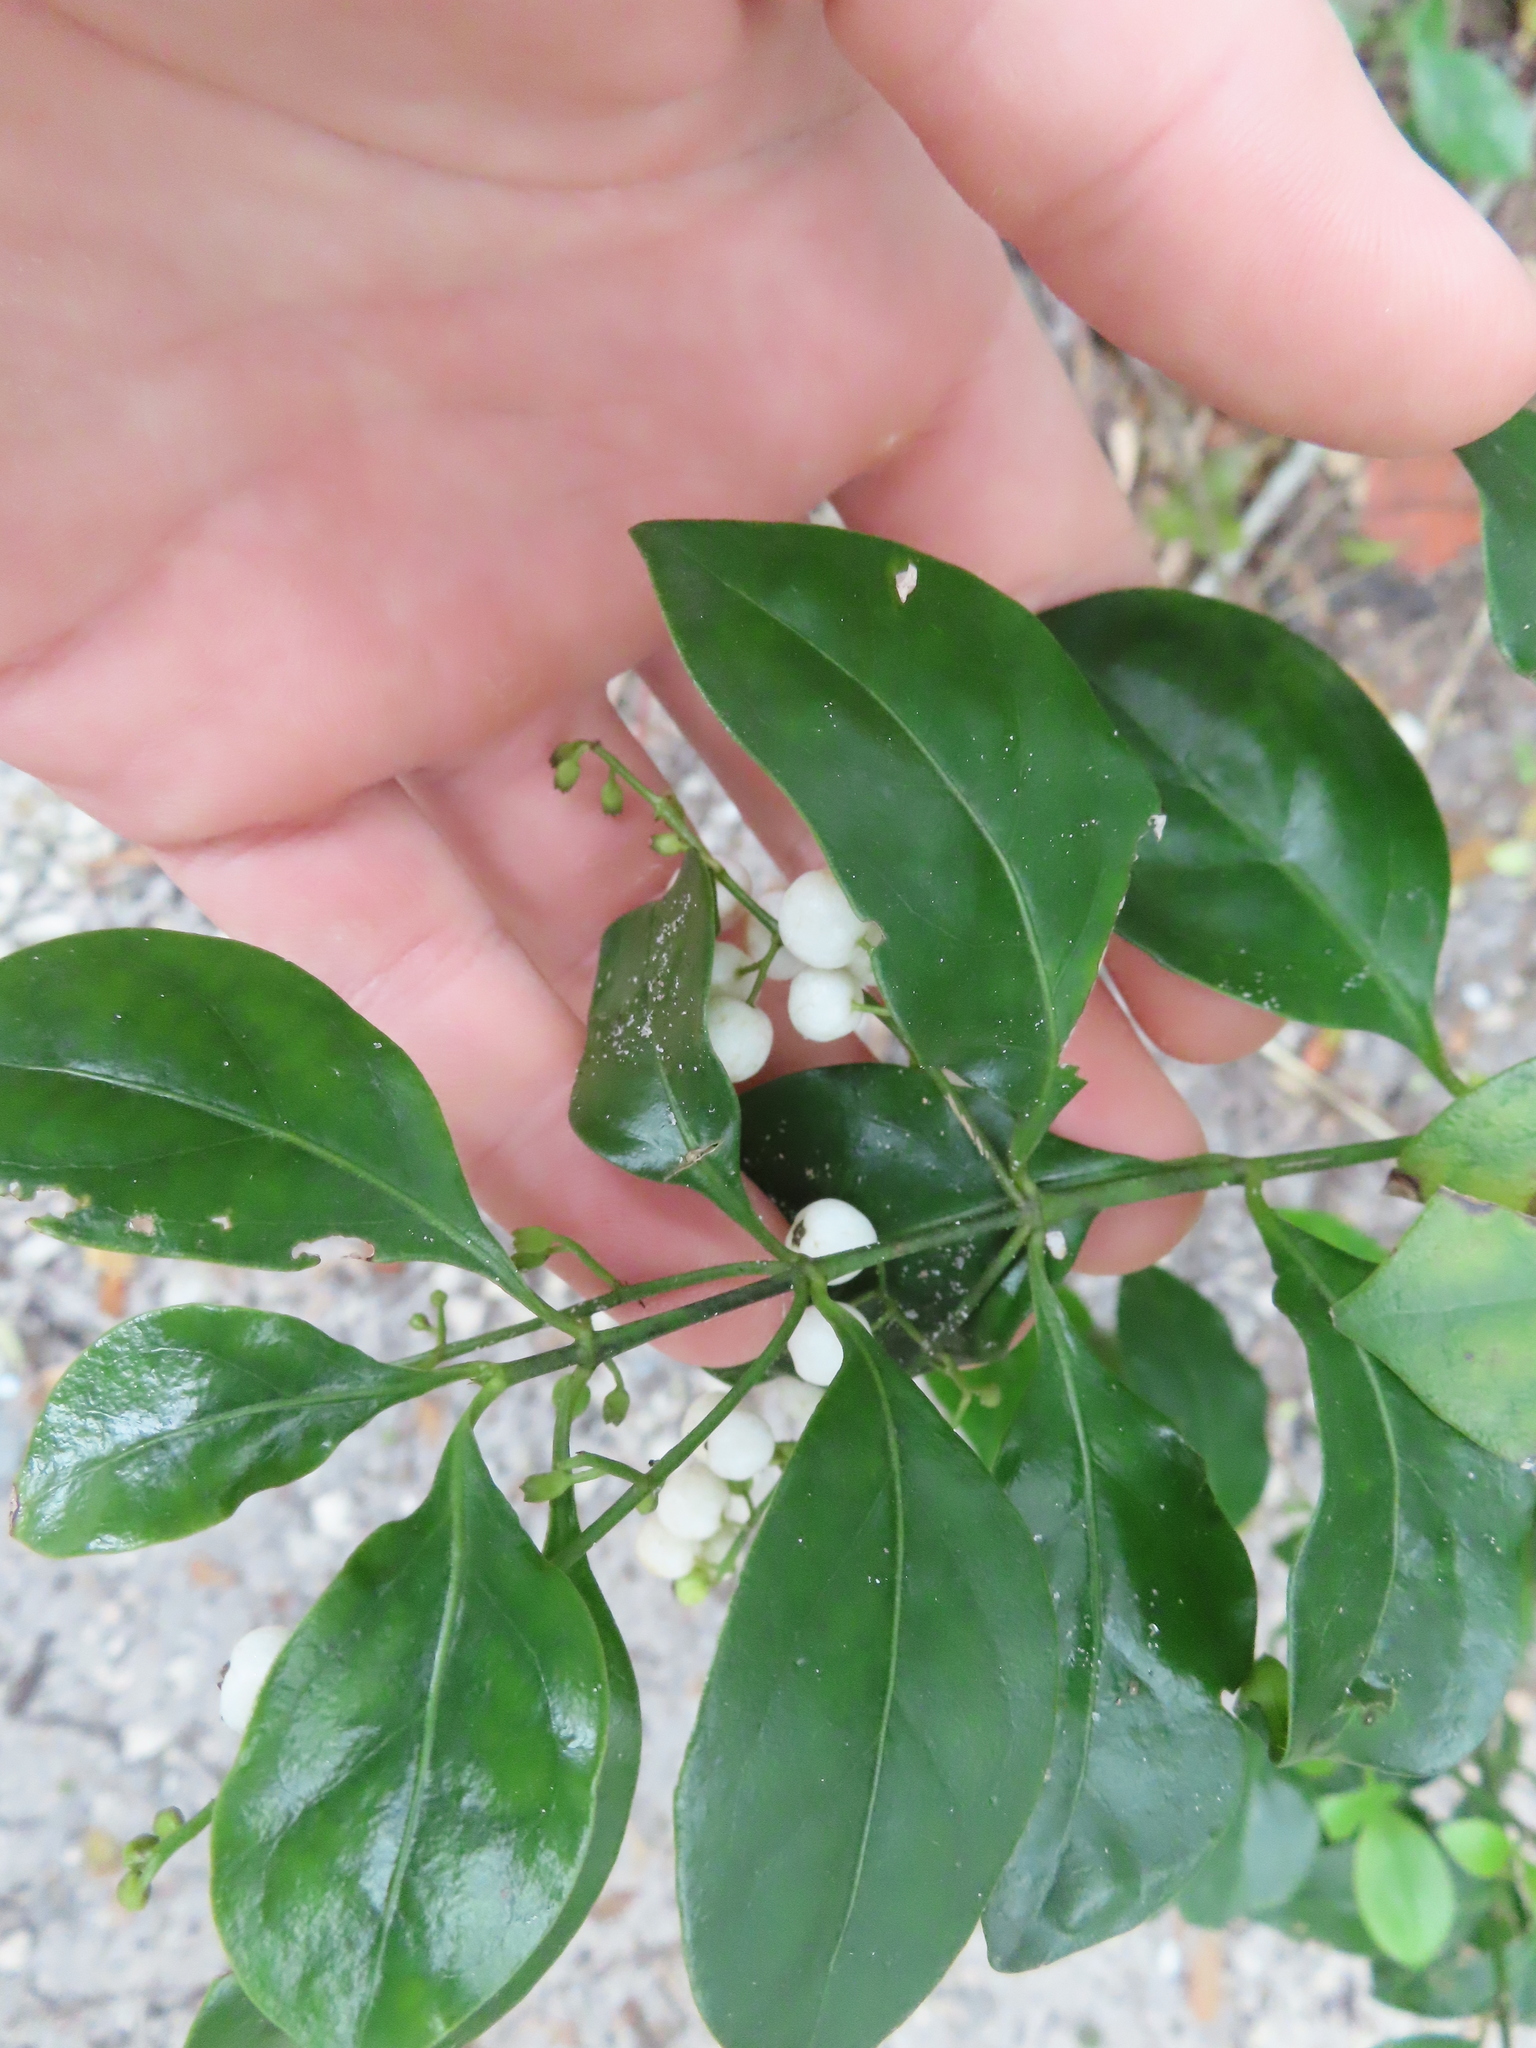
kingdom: Plantae
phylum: Tracheophyta
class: Magnoliopsida
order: Gentianales
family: Rubiaceae
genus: Chiococca
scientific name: Chiococca alba
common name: Snowberry
